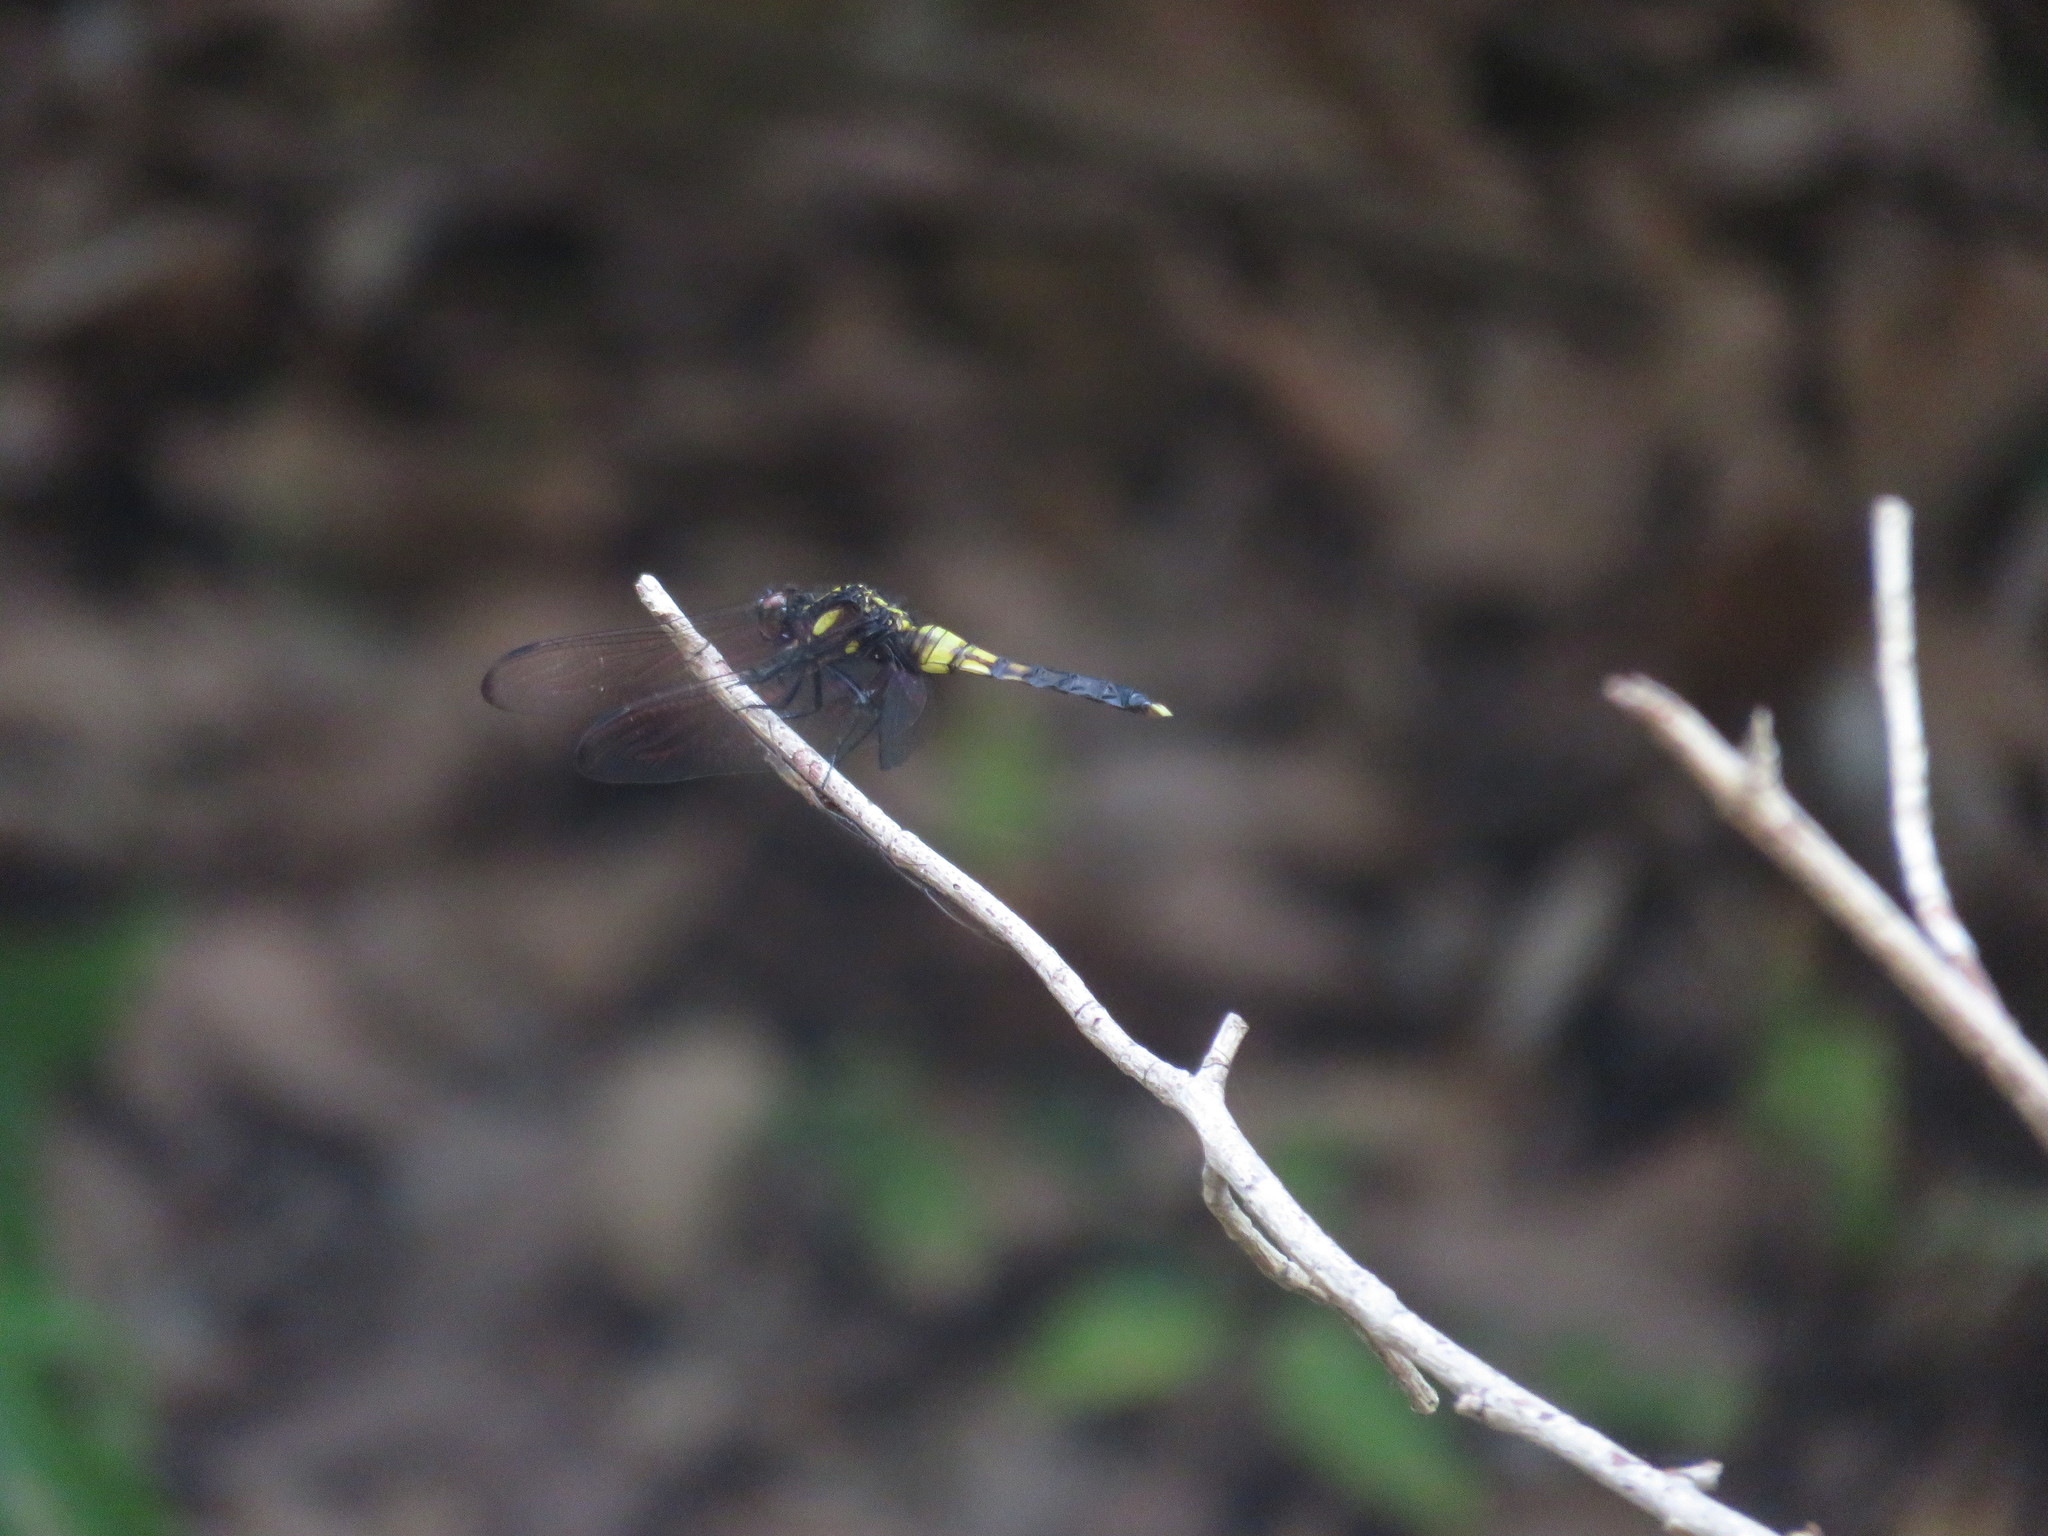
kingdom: Animalia
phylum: Arthropoda
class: Insecta
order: Odonata
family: Libellulidae
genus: Orthetrum
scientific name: Orthetrum melania
